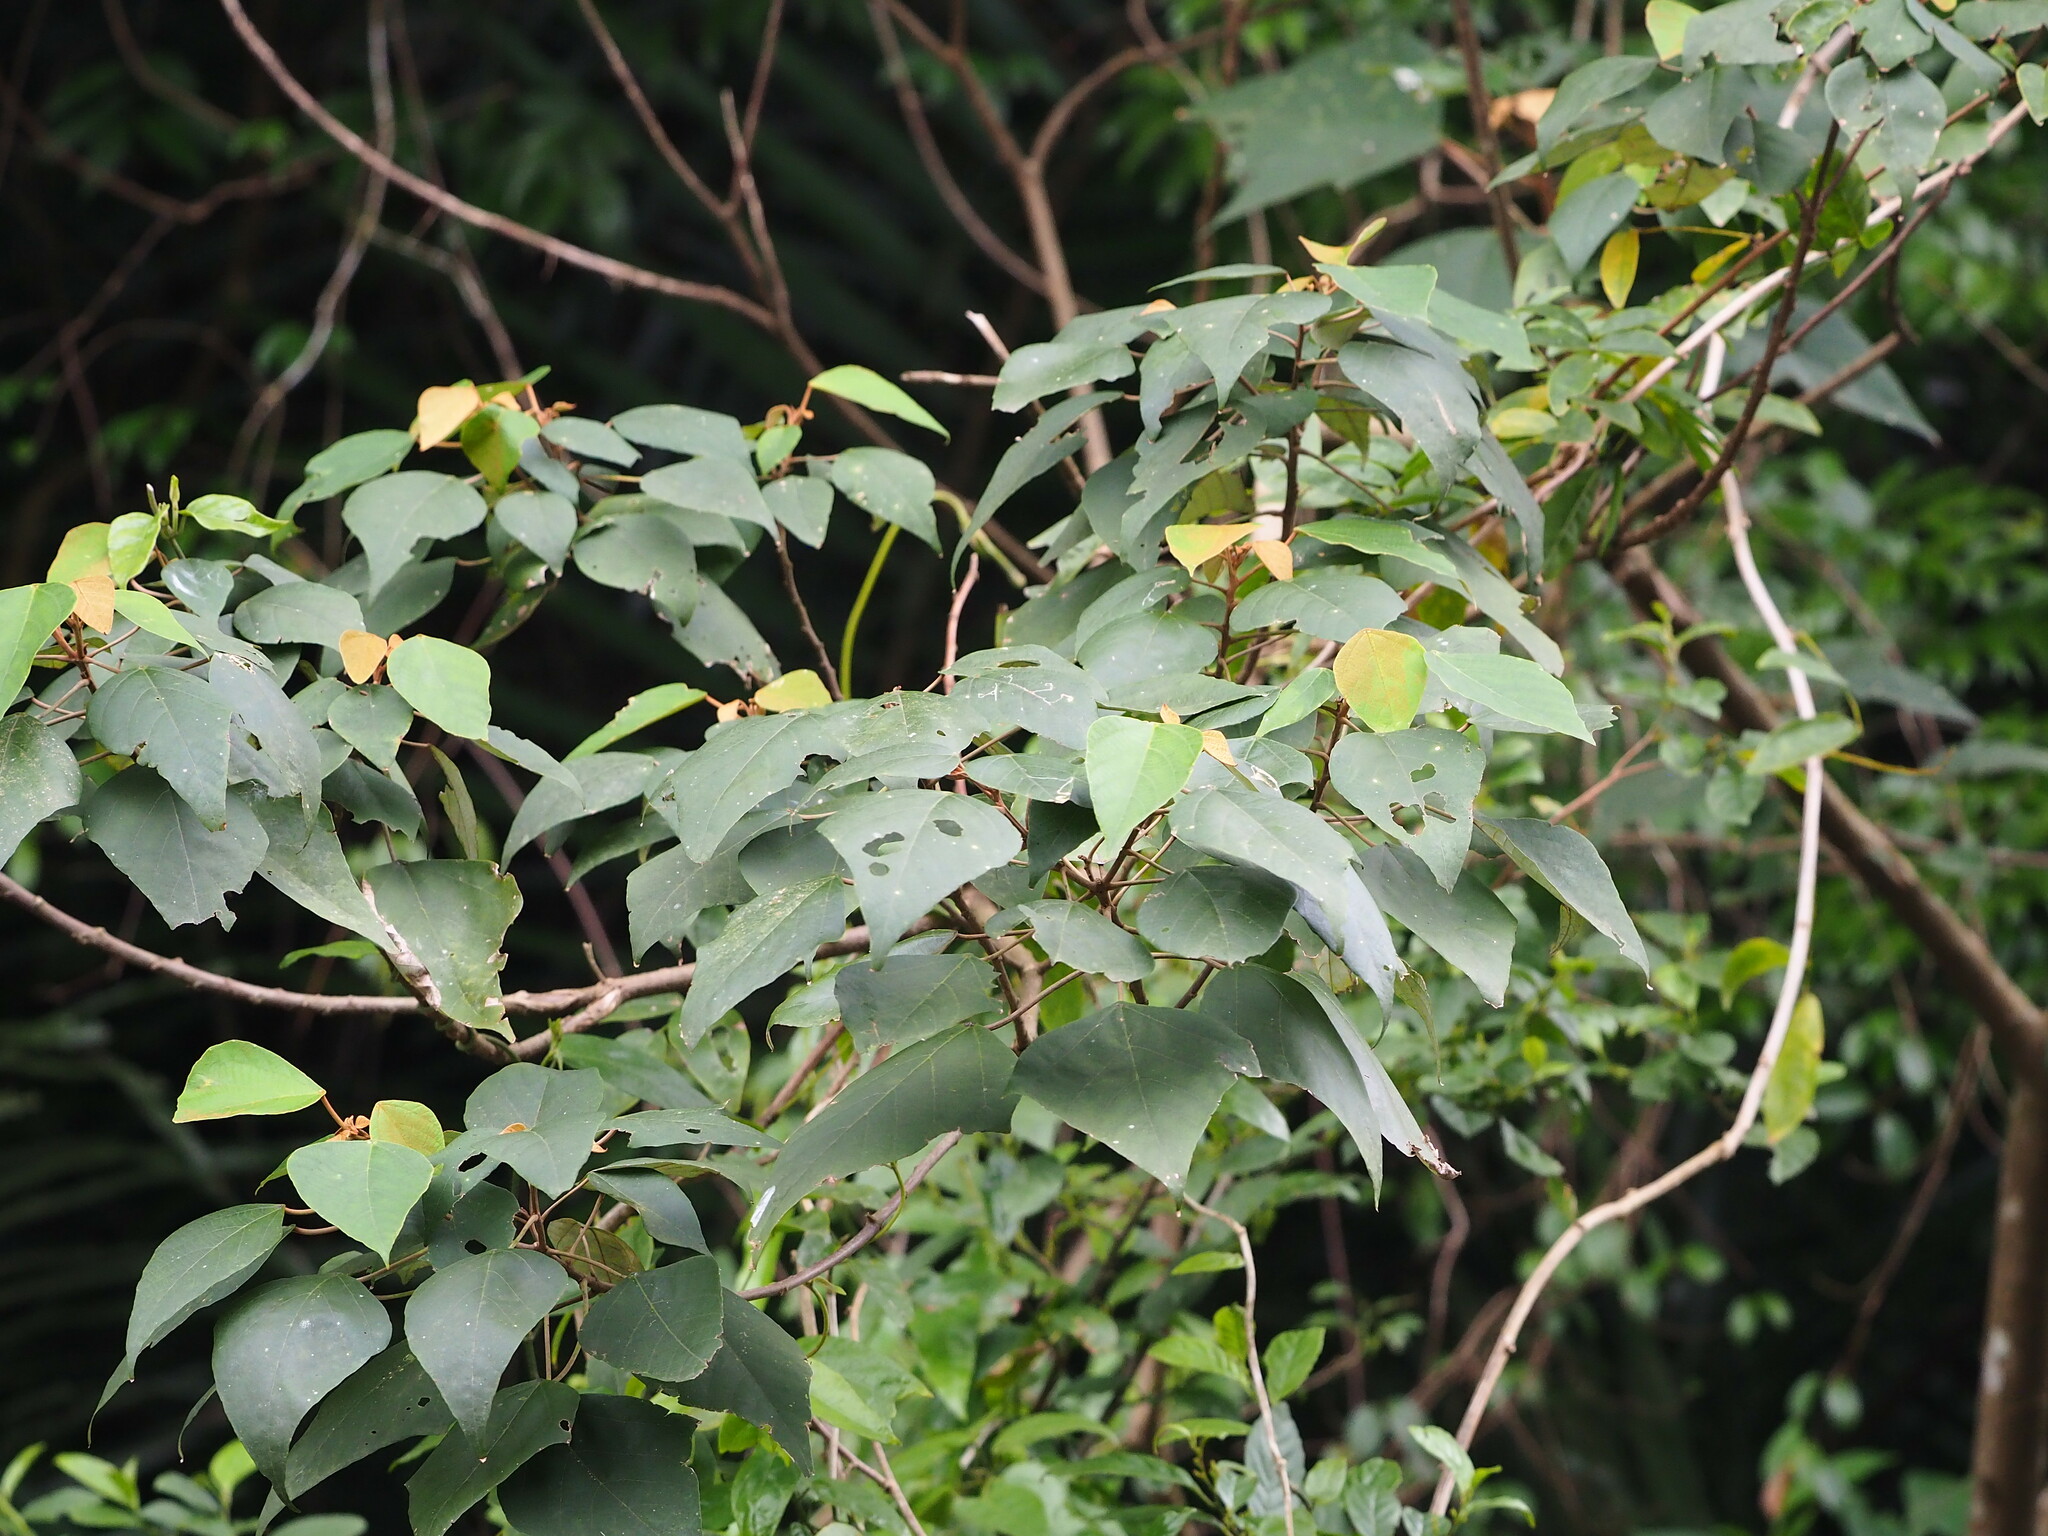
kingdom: Plantae
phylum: Tracheophyta
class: Magnoliopsida
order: Malpighiales
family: Euphorbiaceae
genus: Mallotus
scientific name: Mallotus paniculatus
